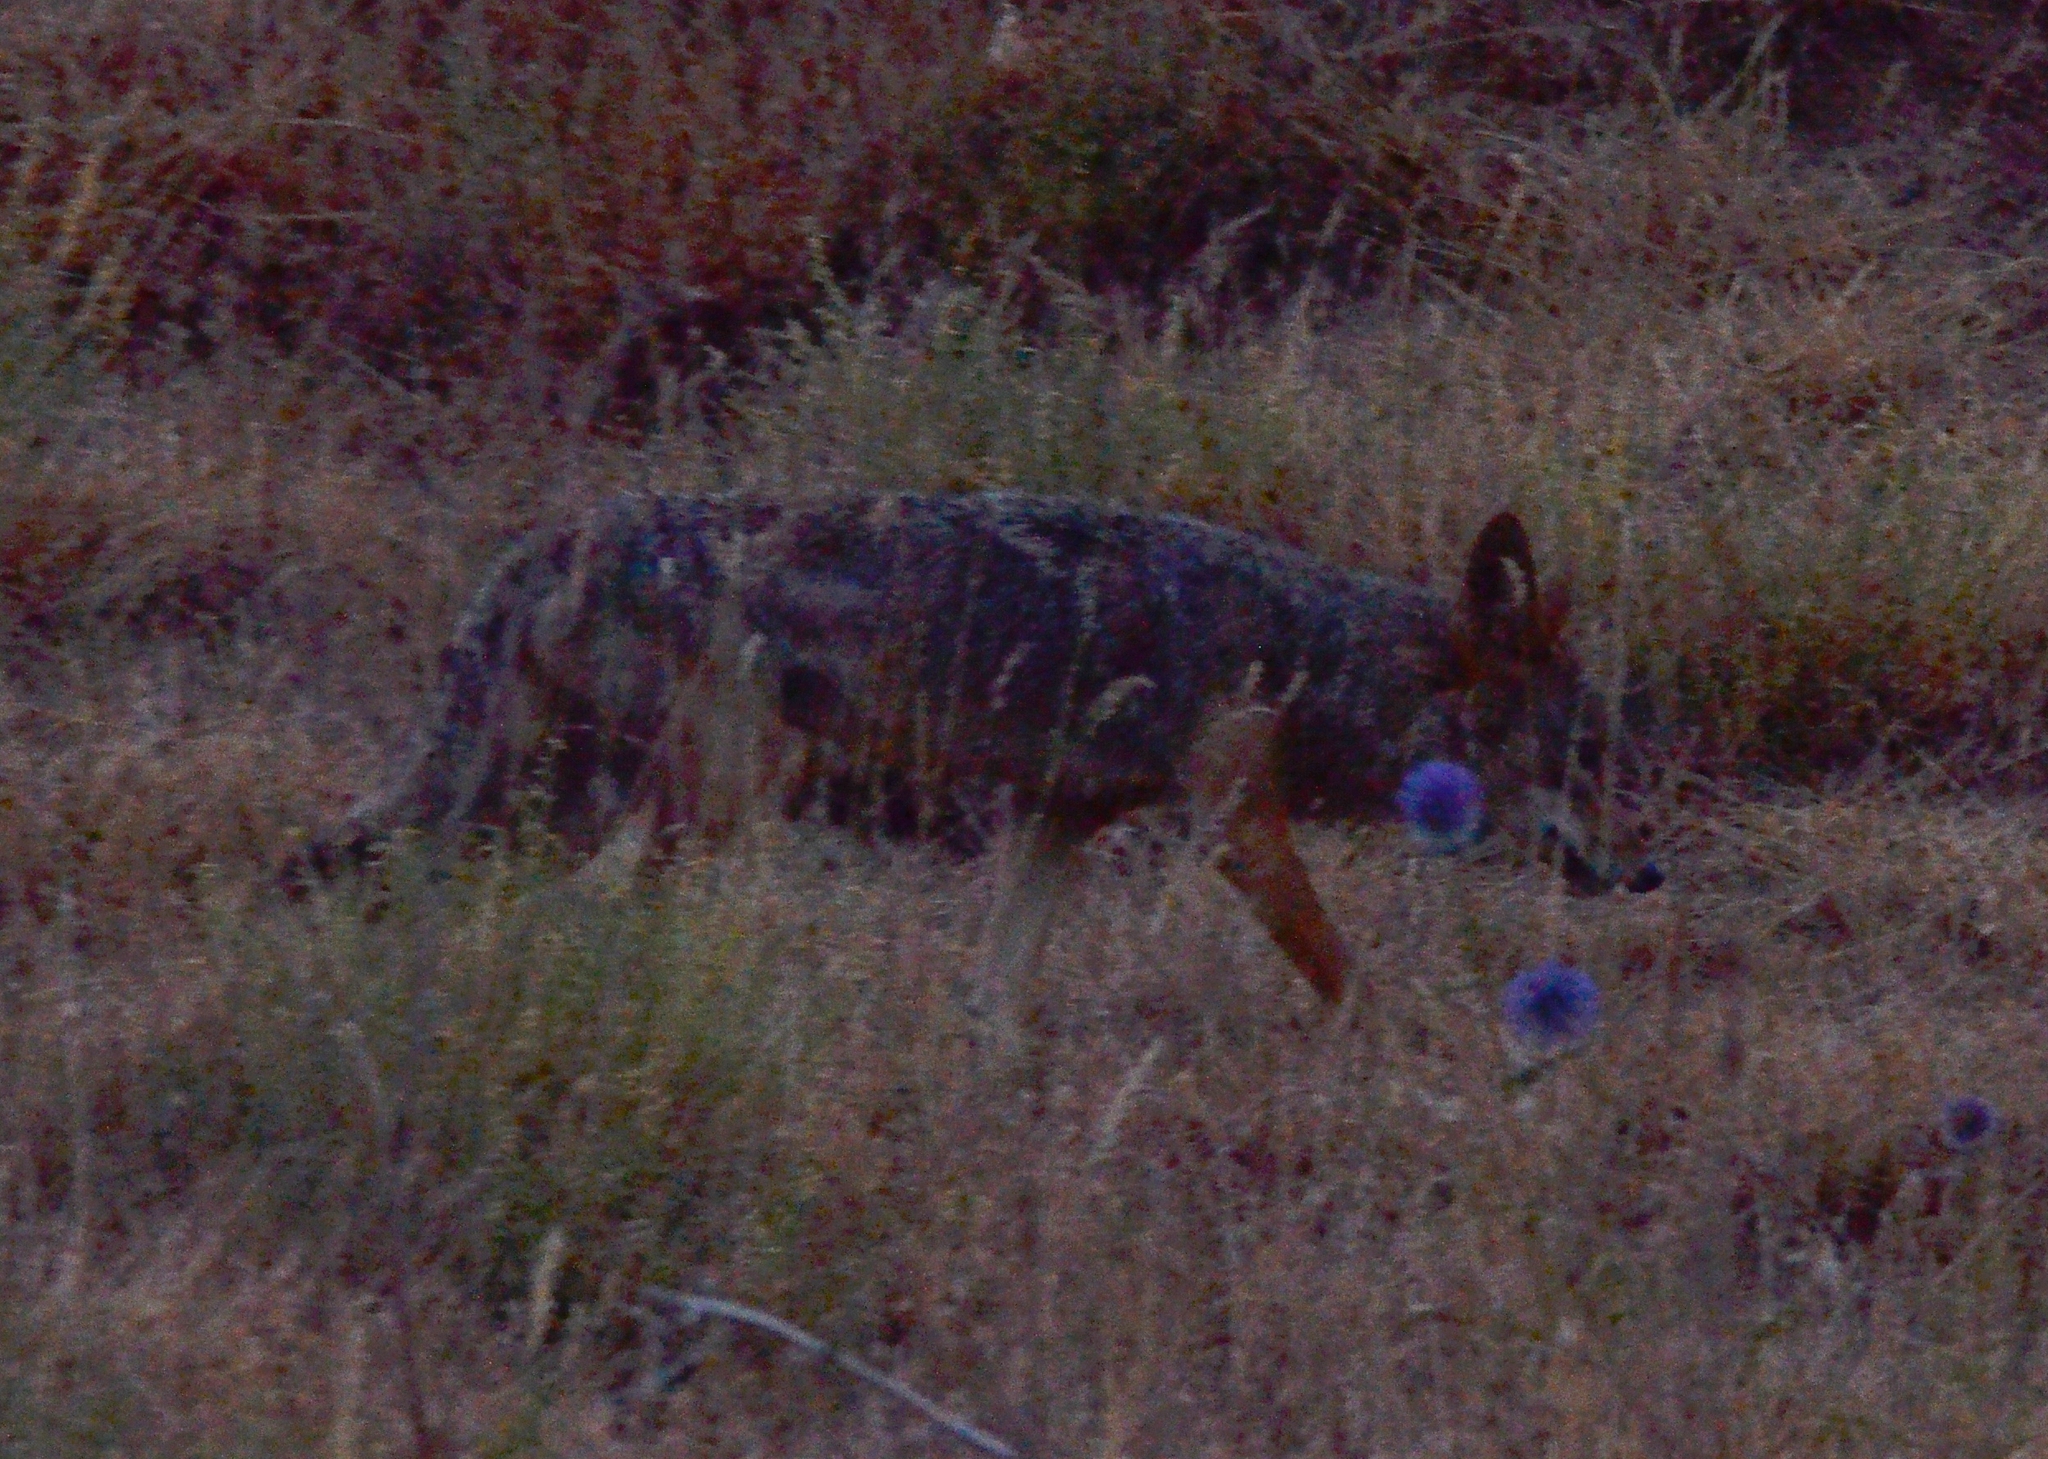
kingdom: Animalia
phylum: Chordata
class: Mammalia
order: Carnivora
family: Canidae
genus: Canis
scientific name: Canis lupaster
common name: African golden wolf
